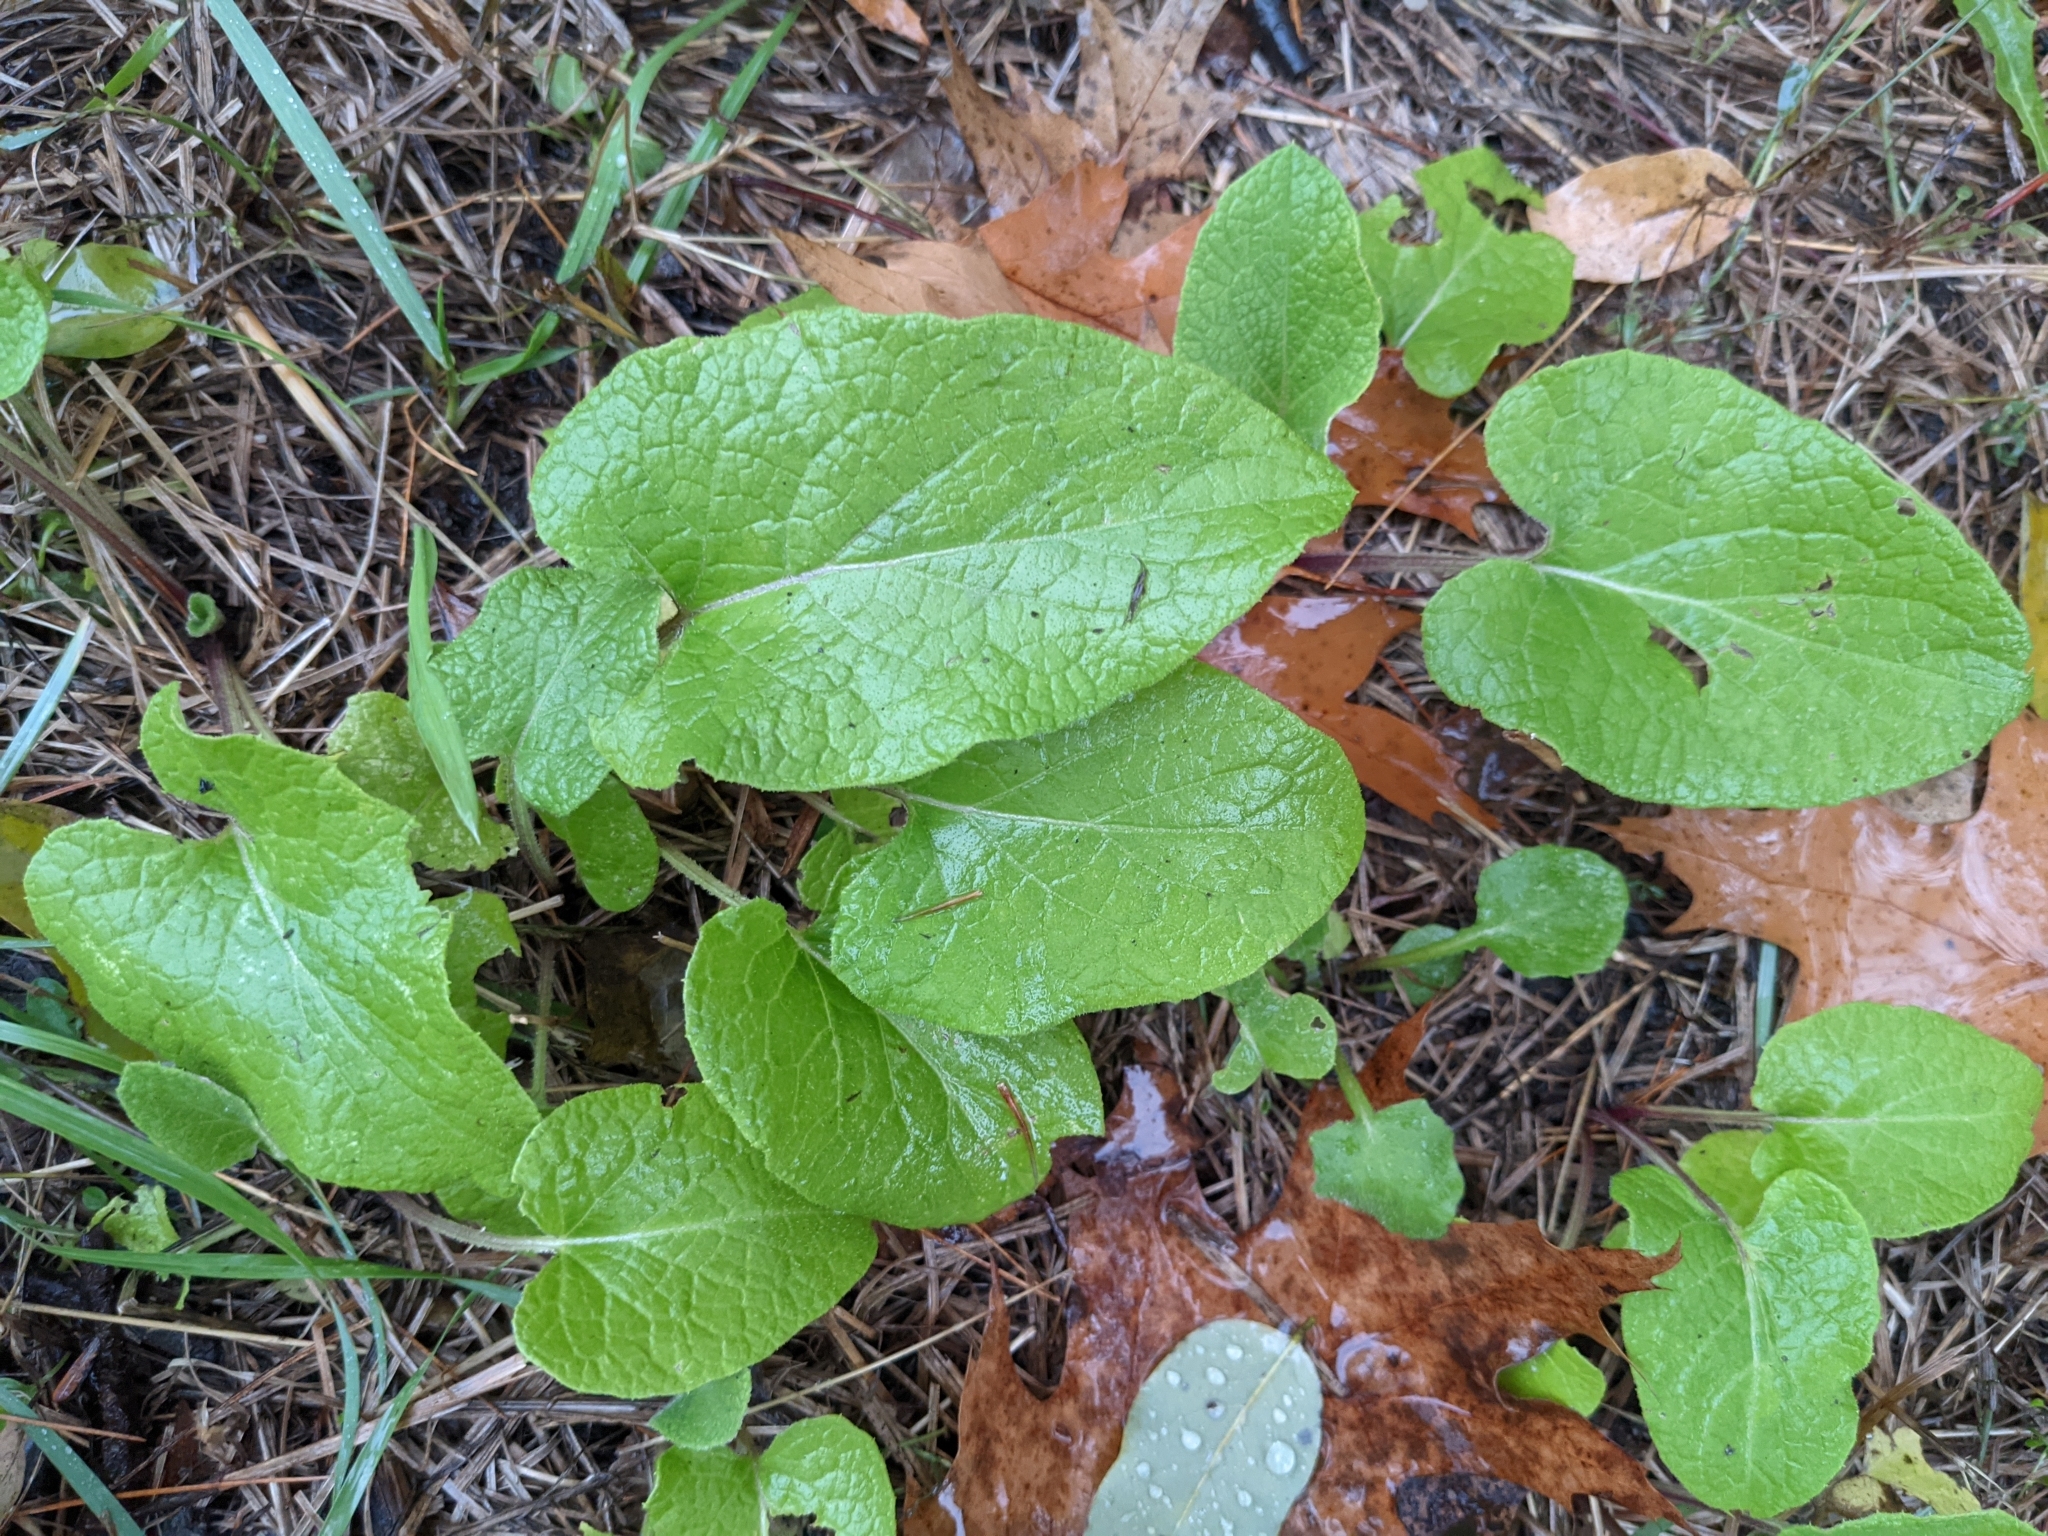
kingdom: Plantae
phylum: Tracheophyta
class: Magnoliopsida
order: Asterales
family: Asteraceae
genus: Arctium
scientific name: Arctium
